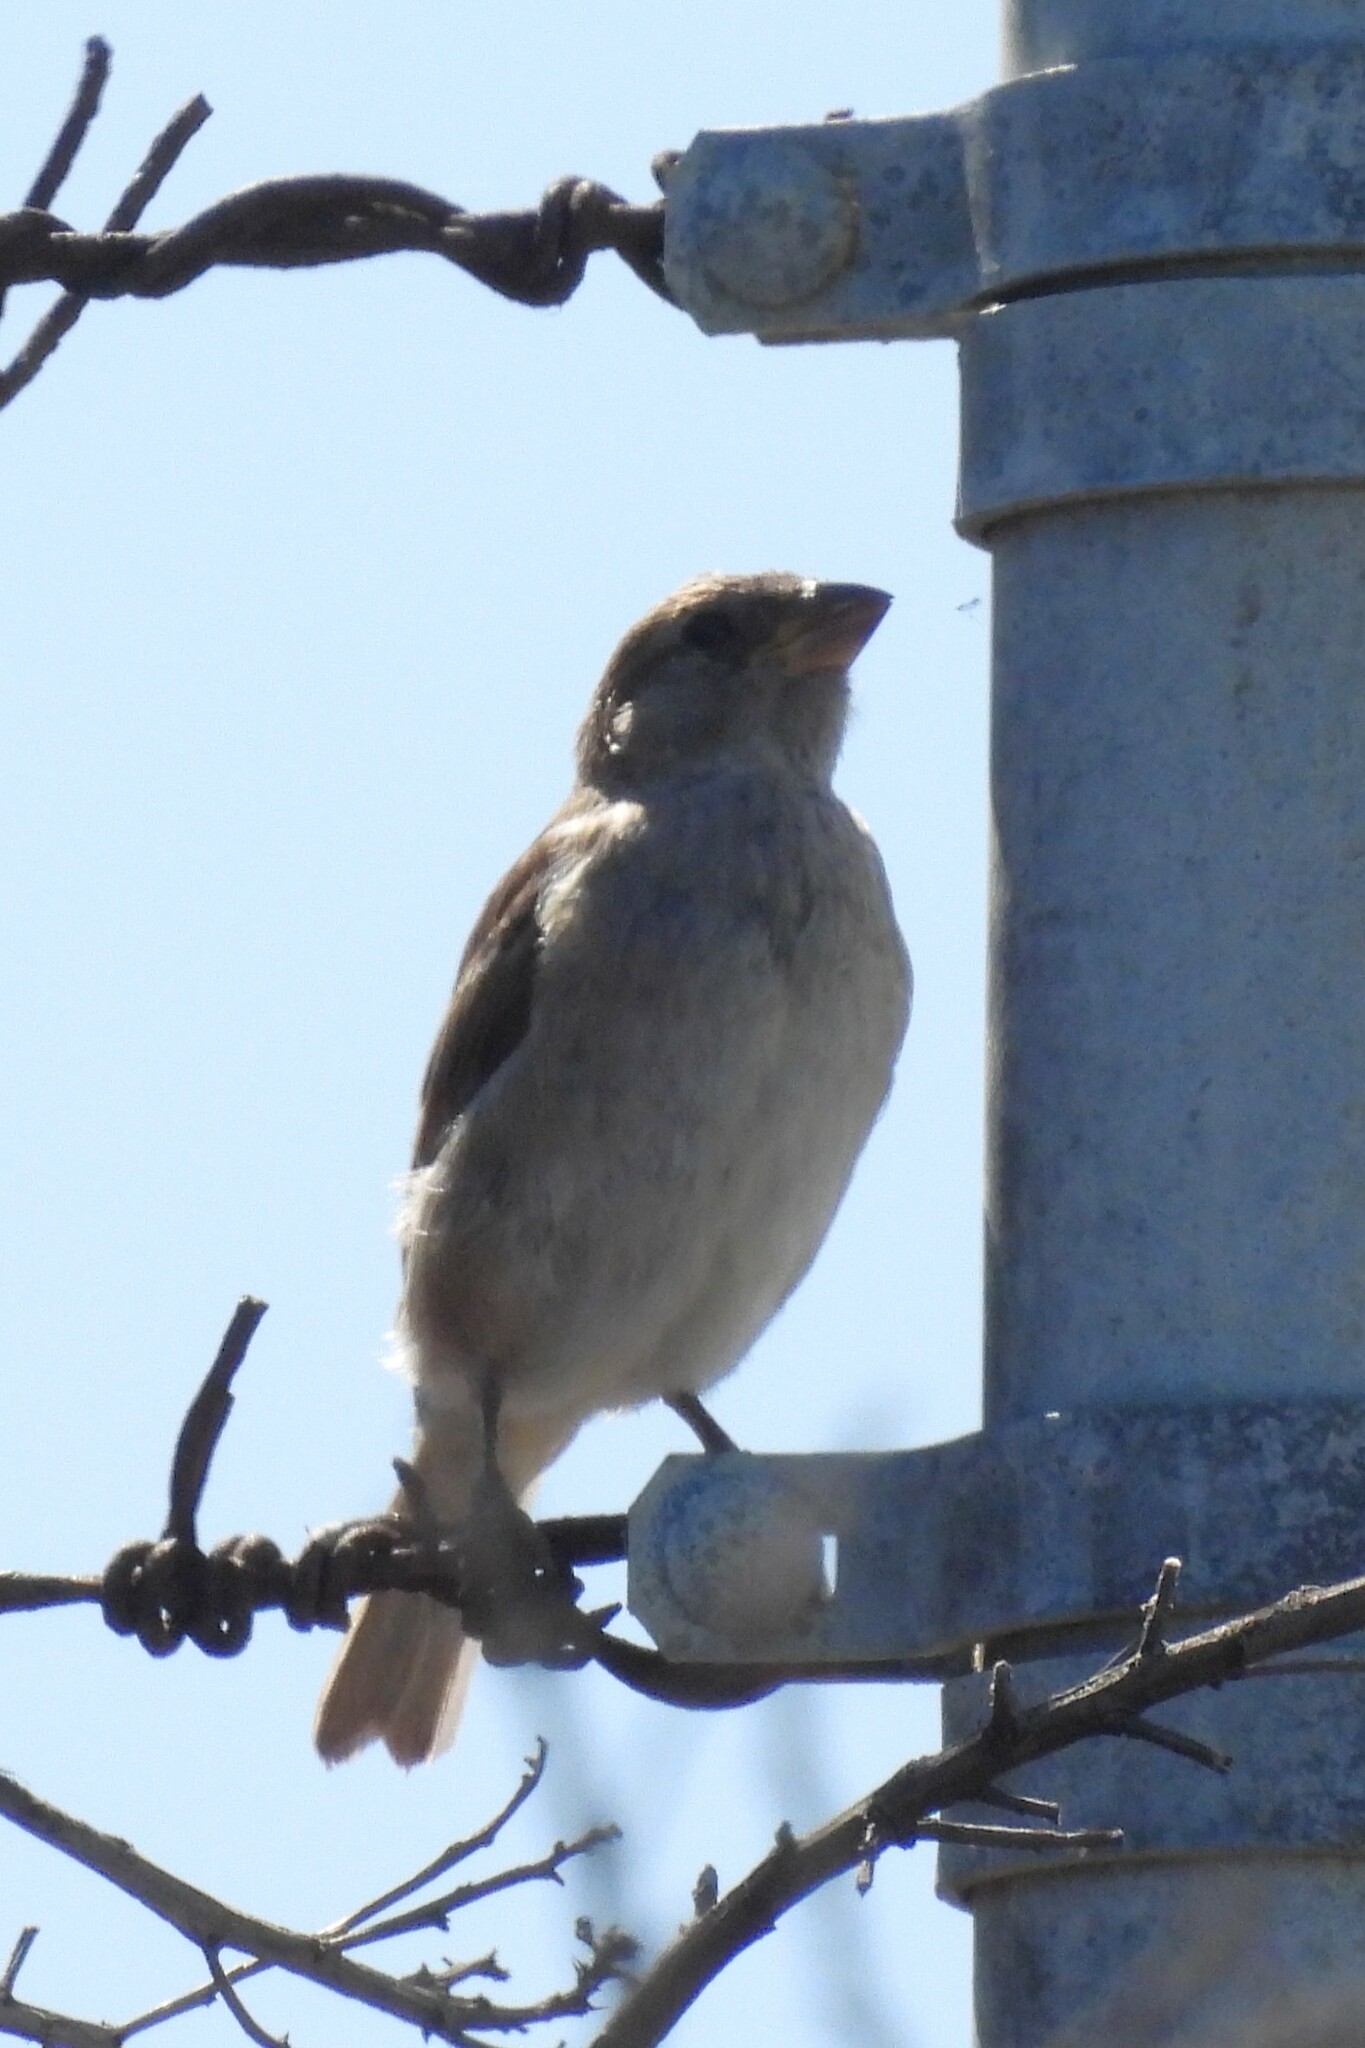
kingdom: Animalia
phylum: Chordata
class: Aves
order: Passeriformes
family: Passeridae
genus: Passer
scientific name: Passer domesticus
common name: House sparrow
